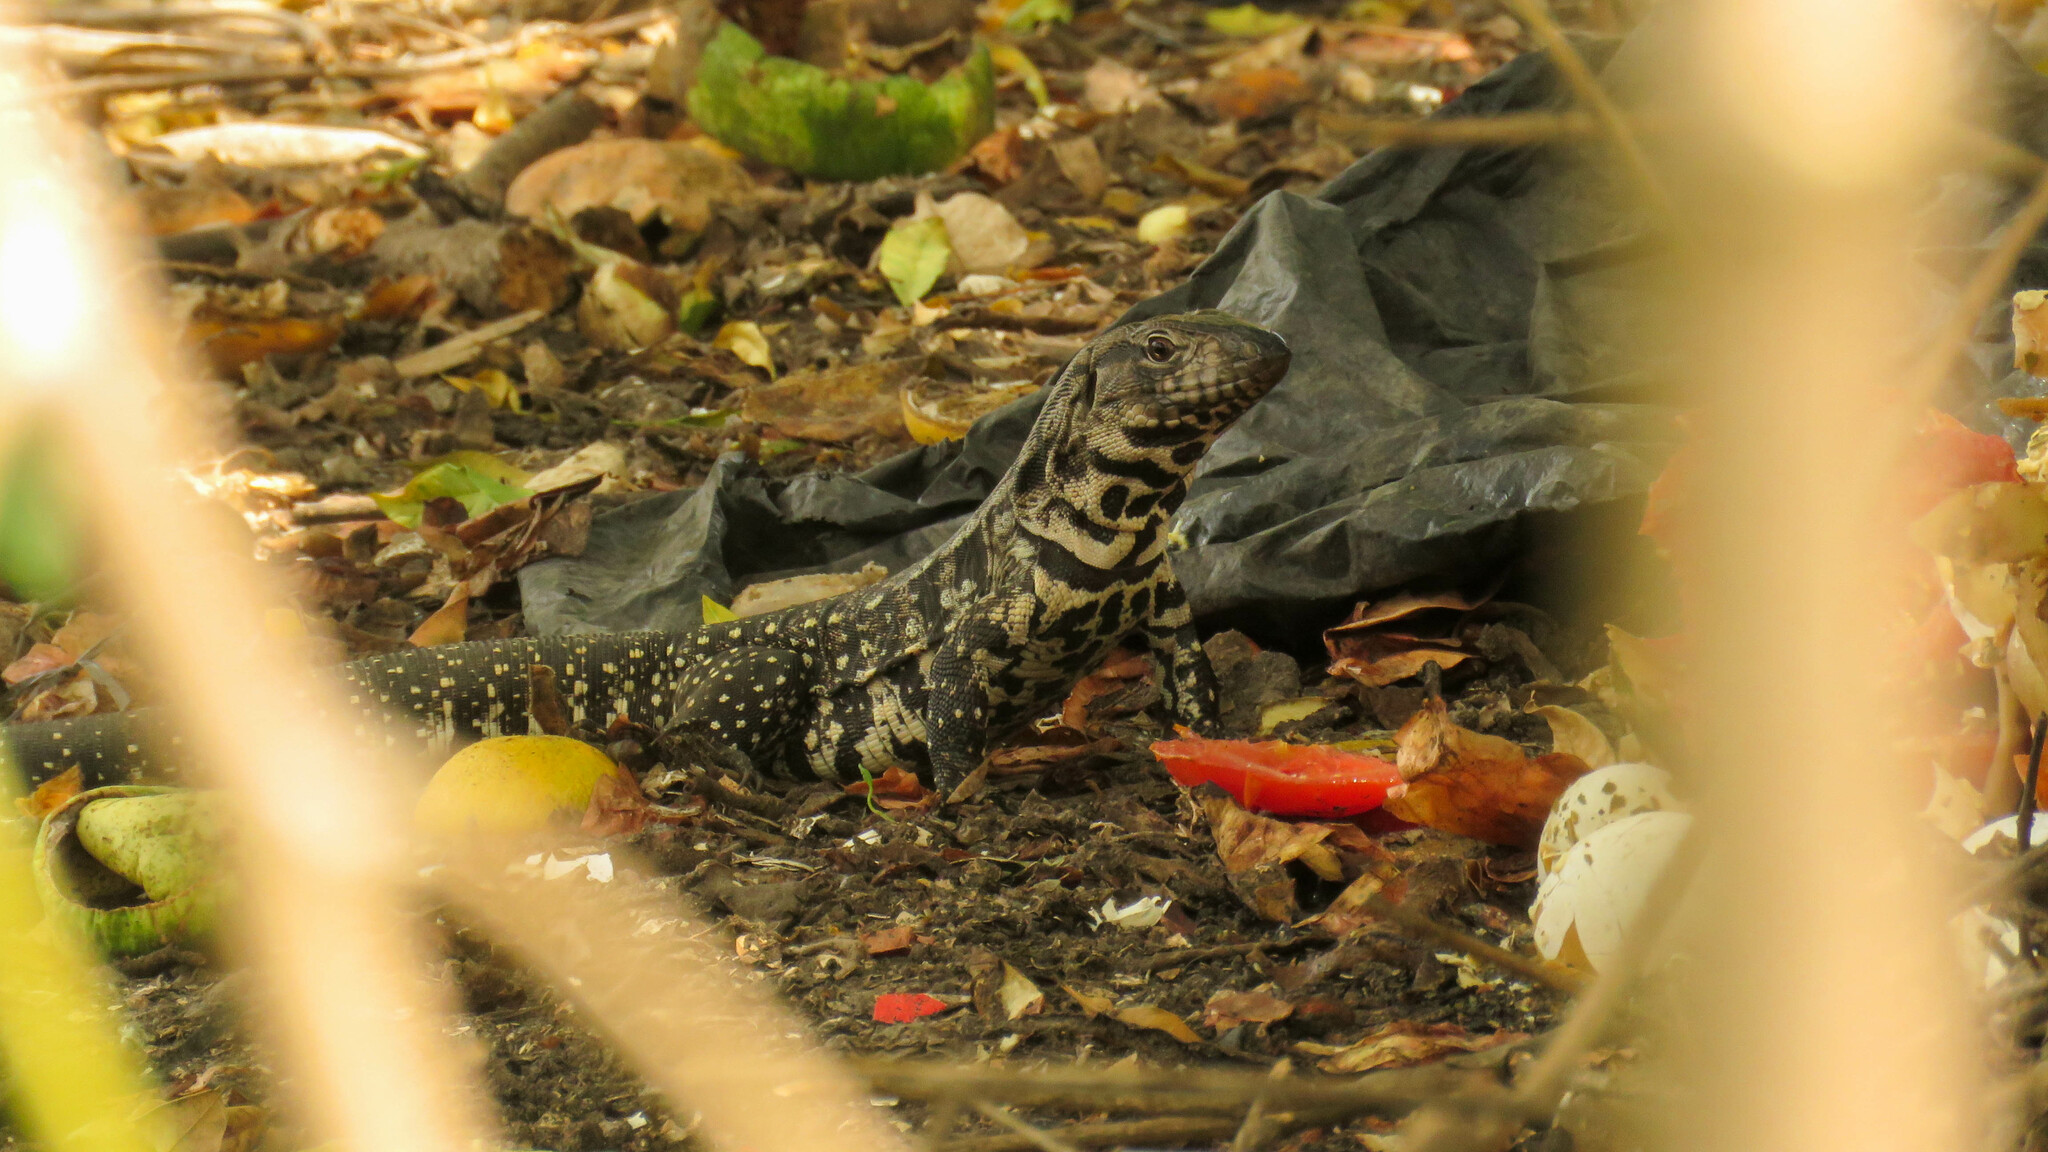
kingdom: Animalia
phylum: Chordata
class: Squamata
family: Teiidae
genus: Salvator
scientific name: Salvator merianae
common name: Argentine black and white tegu
